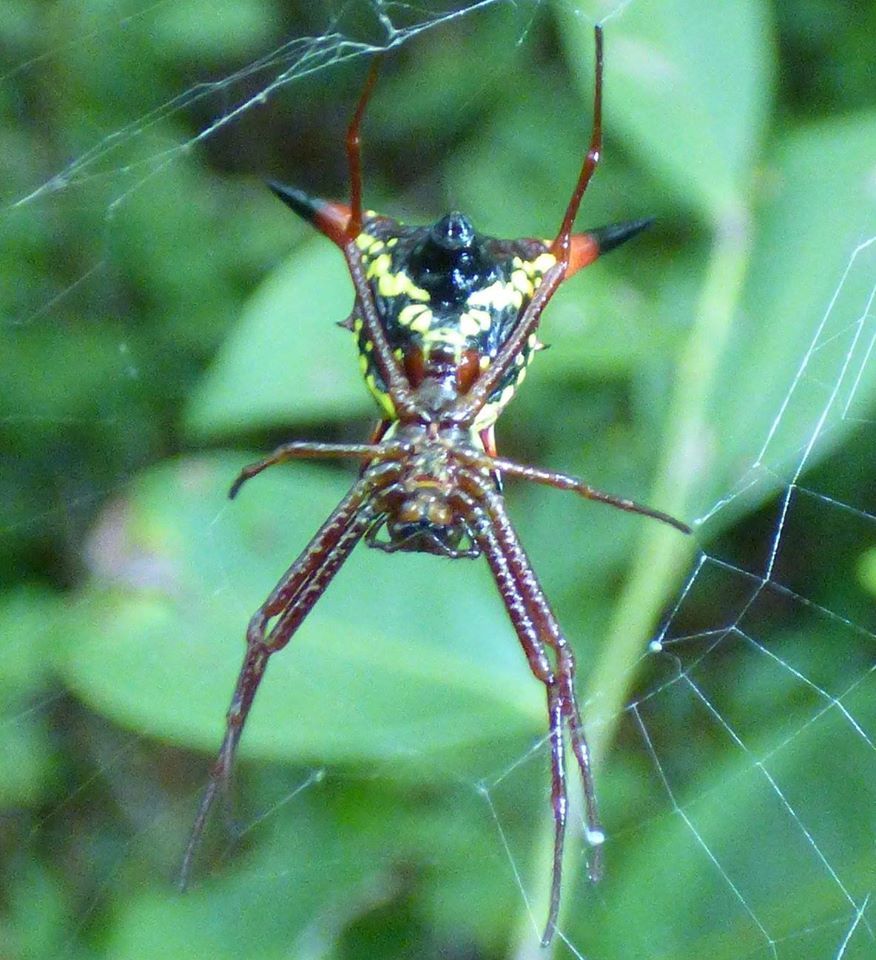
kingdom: Animalia
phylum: Arthropoda
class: Arachnida
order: Araneae
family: Araneidae
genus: Micrathena
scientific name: Micrathena sagittata
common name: Orb weavers
